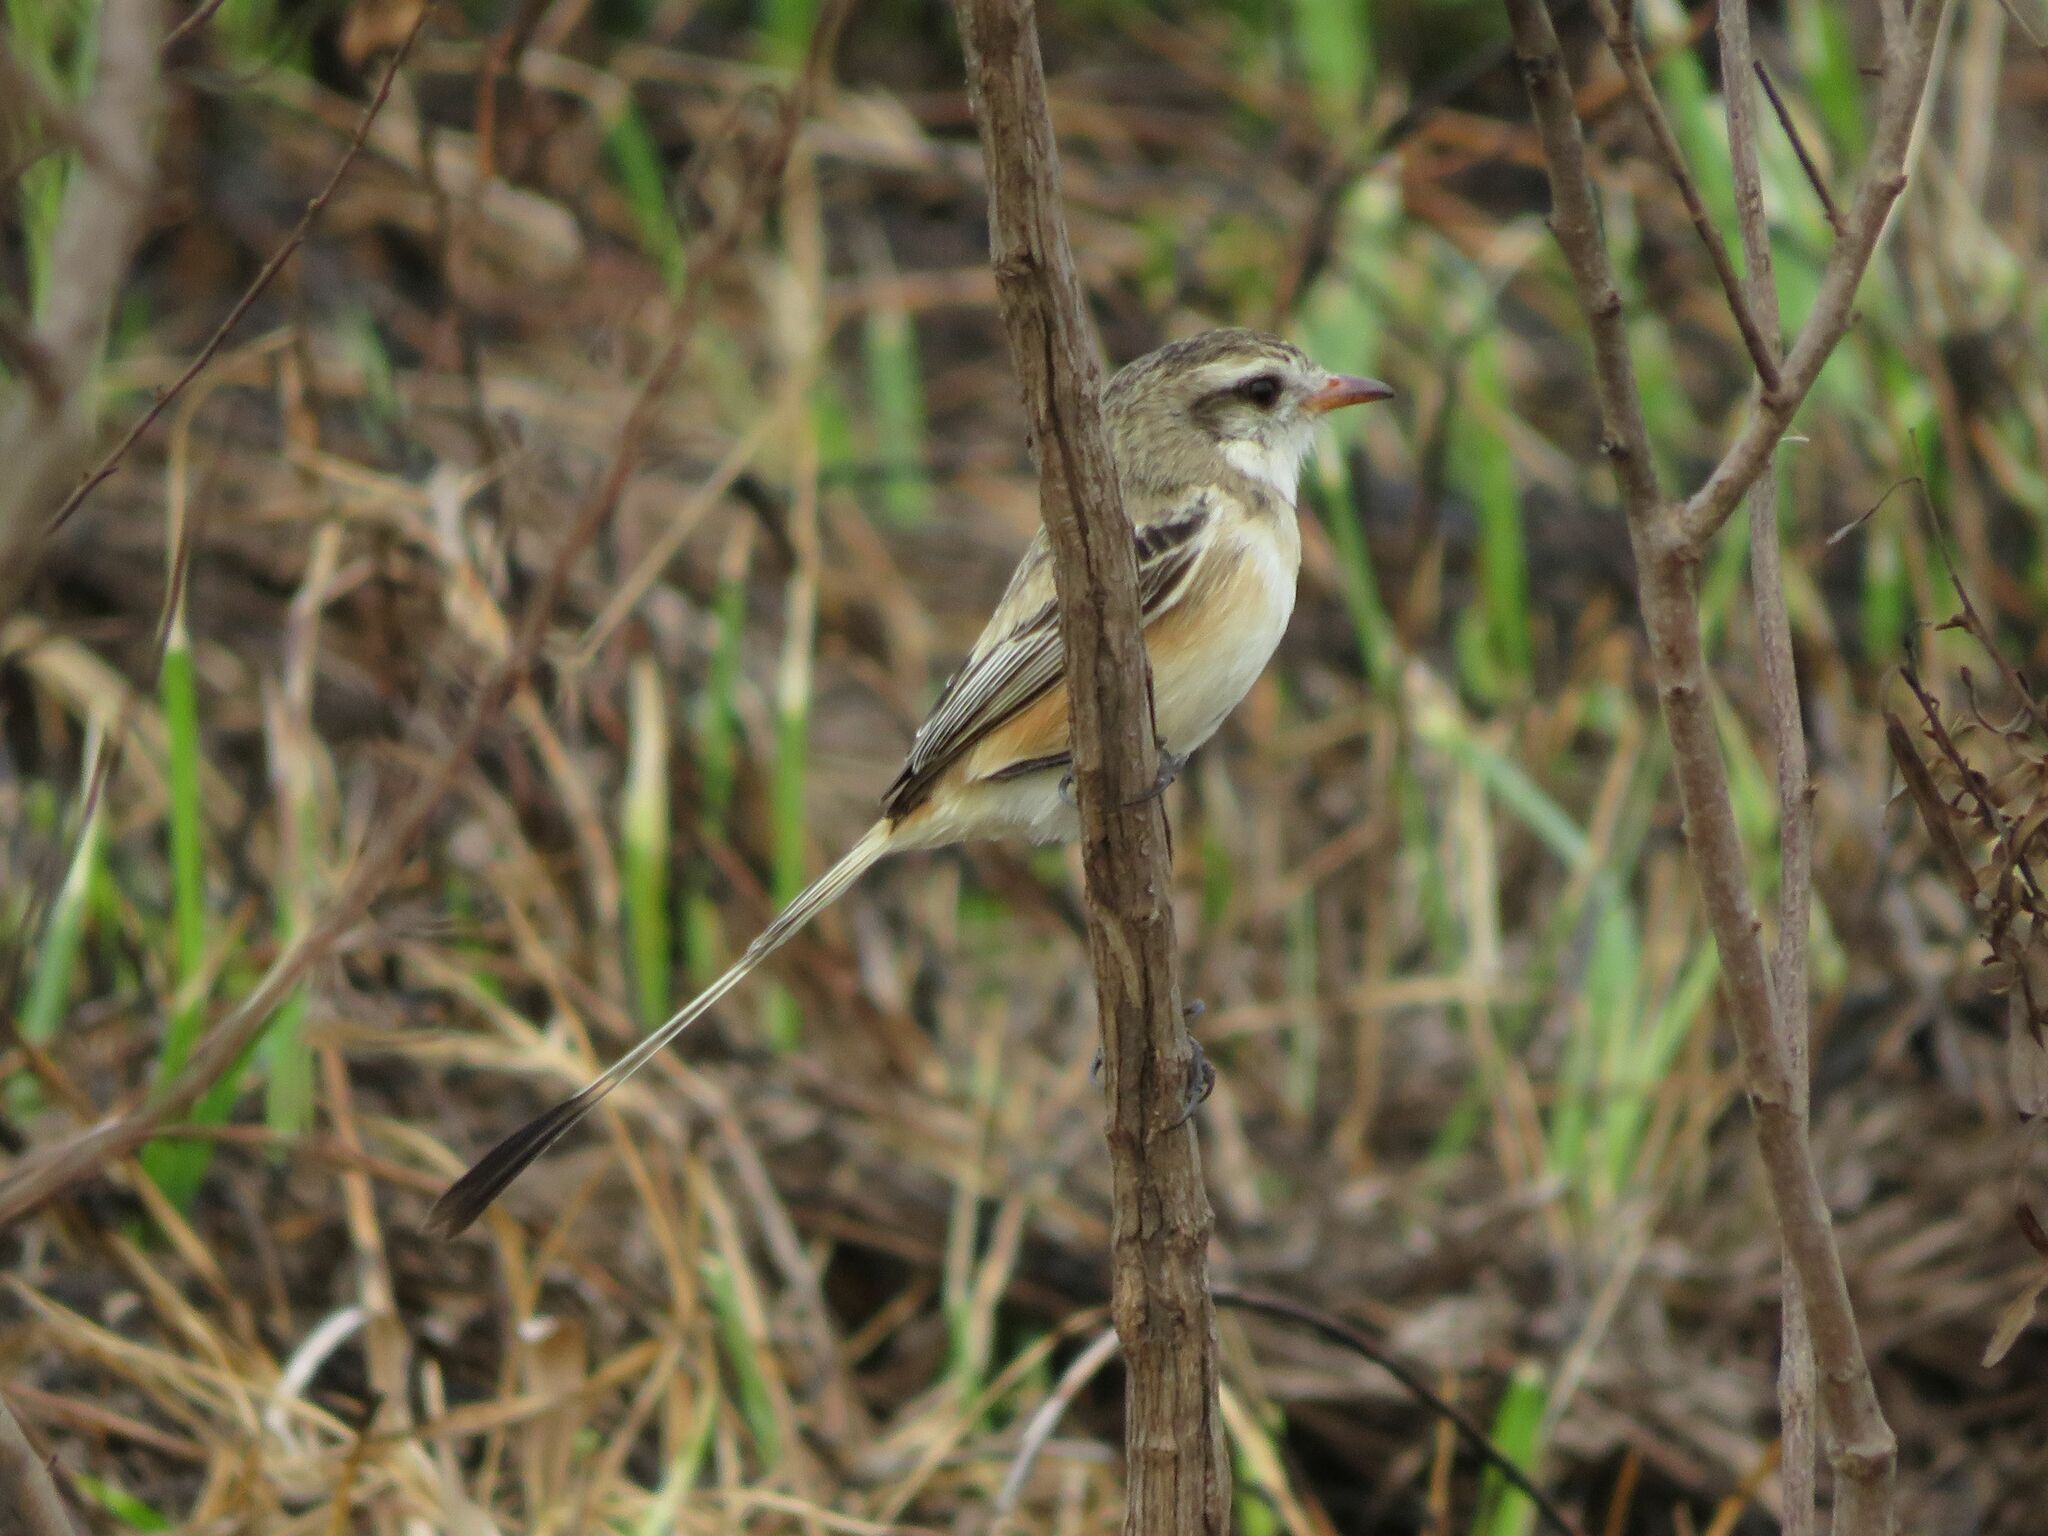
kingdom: Animalia
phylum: Chordata
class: Aves
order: Passeriformes
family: Tyrannidae
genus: Alectrurus
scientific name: Alectrurus risora
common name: Strange-tailed tyrant
